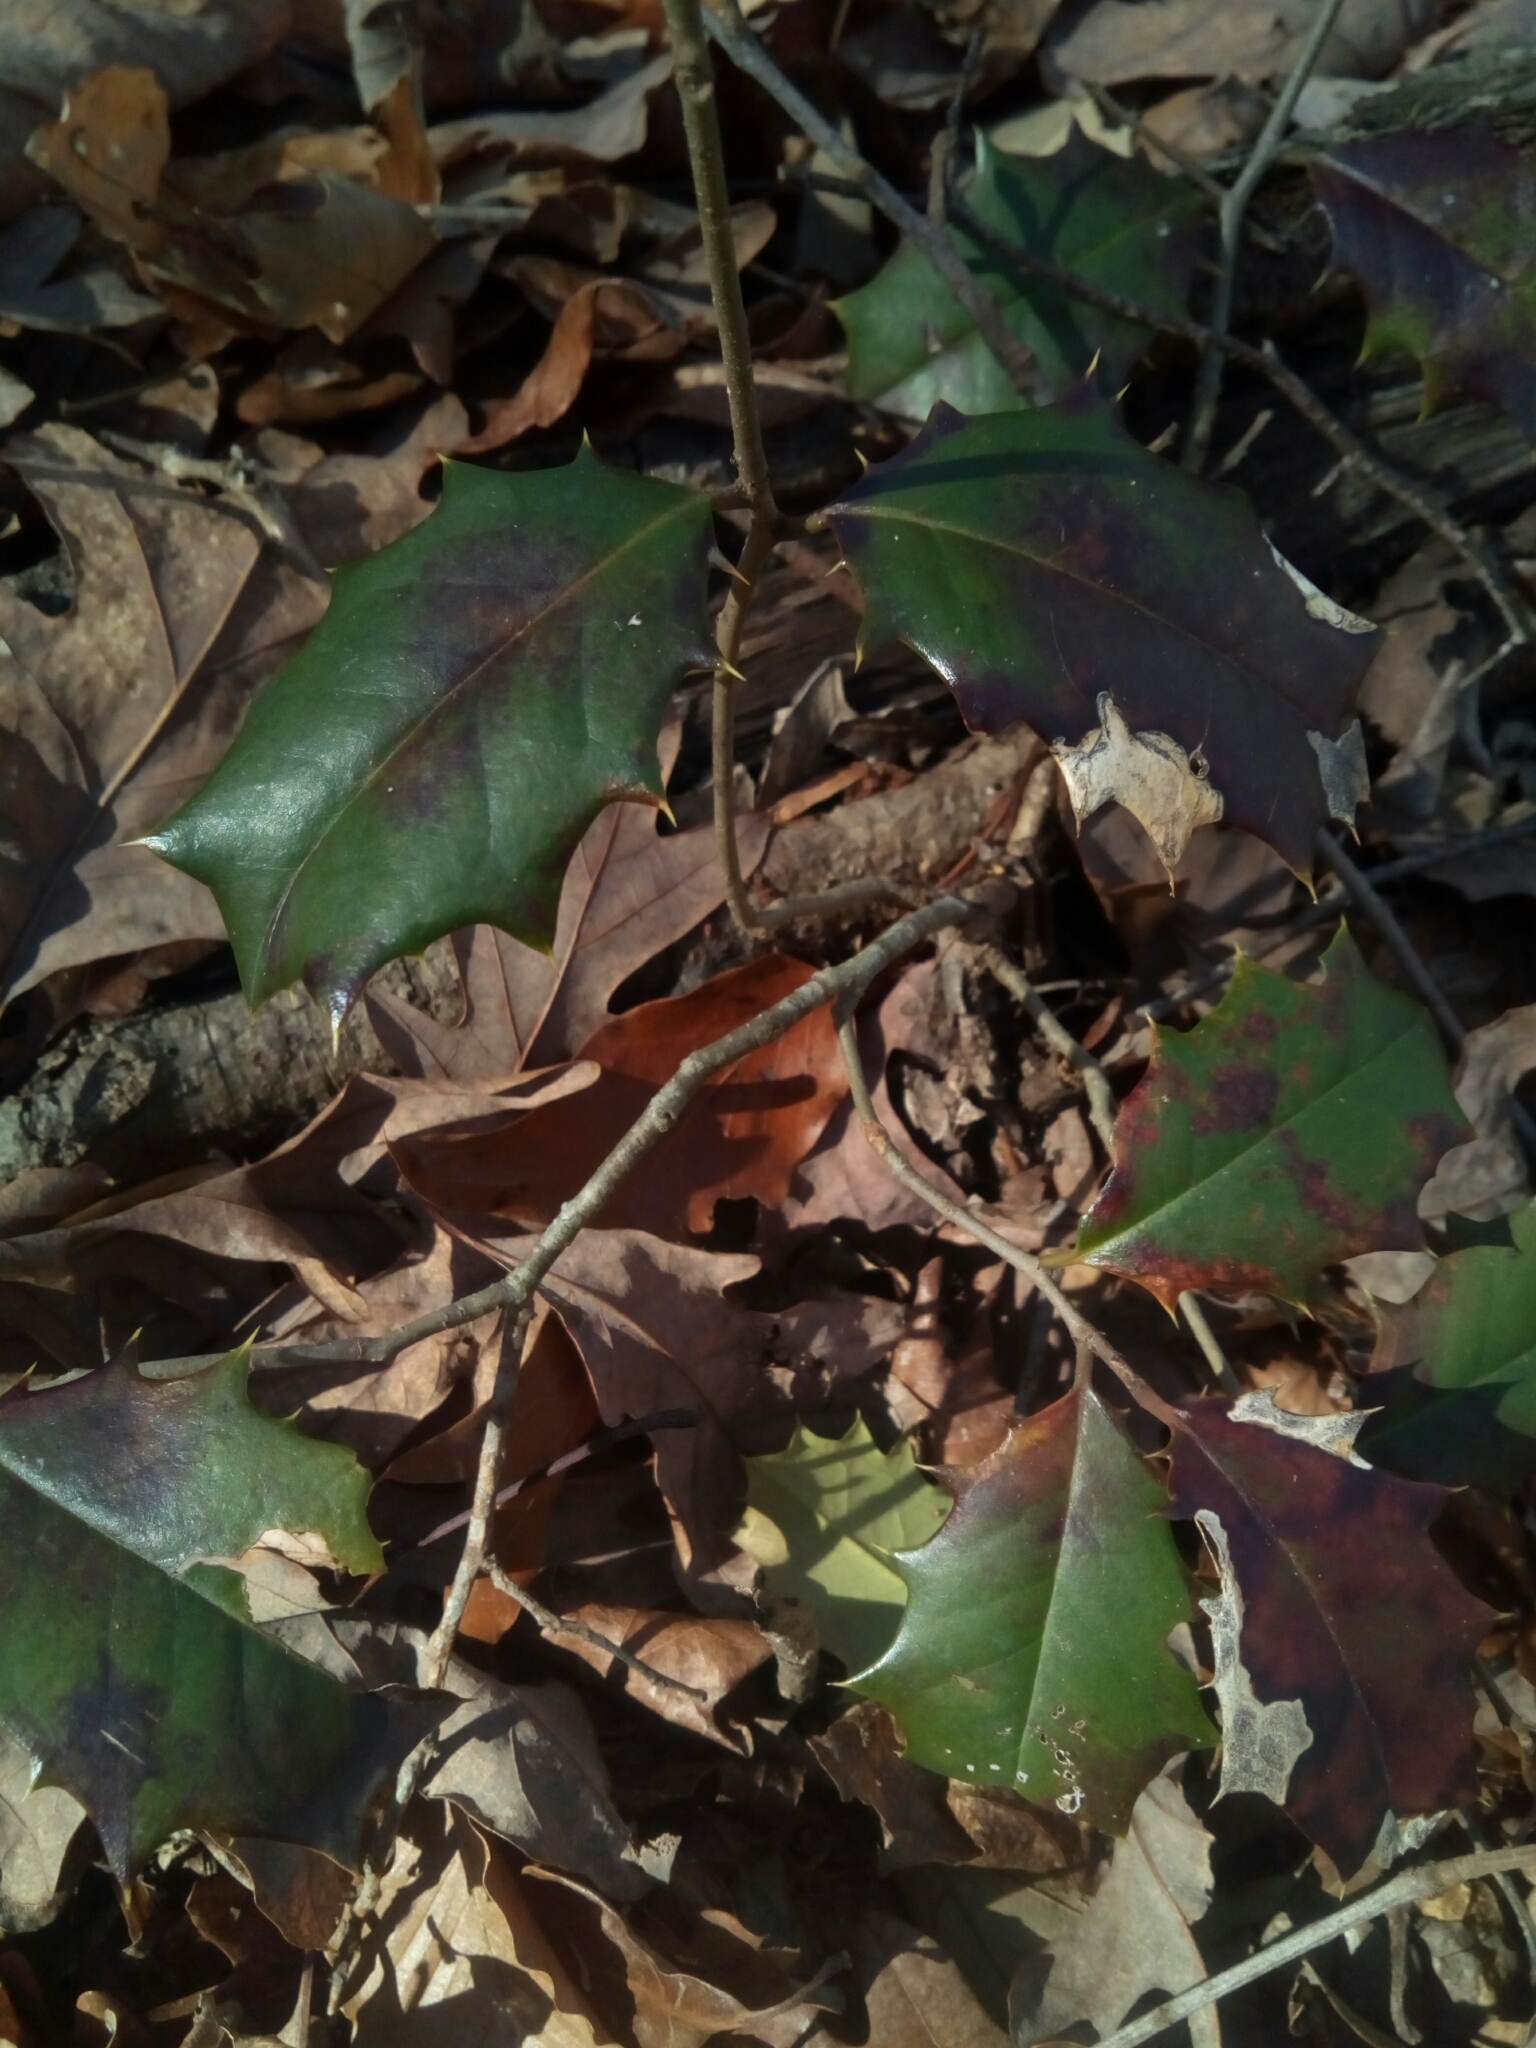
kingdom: Plantae
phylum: Tracheophyta
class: Magnoliopsida
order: Aquifoliales
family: Aquifoliaceae
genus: Ilex
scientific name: Ilex opaca
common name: American holly
